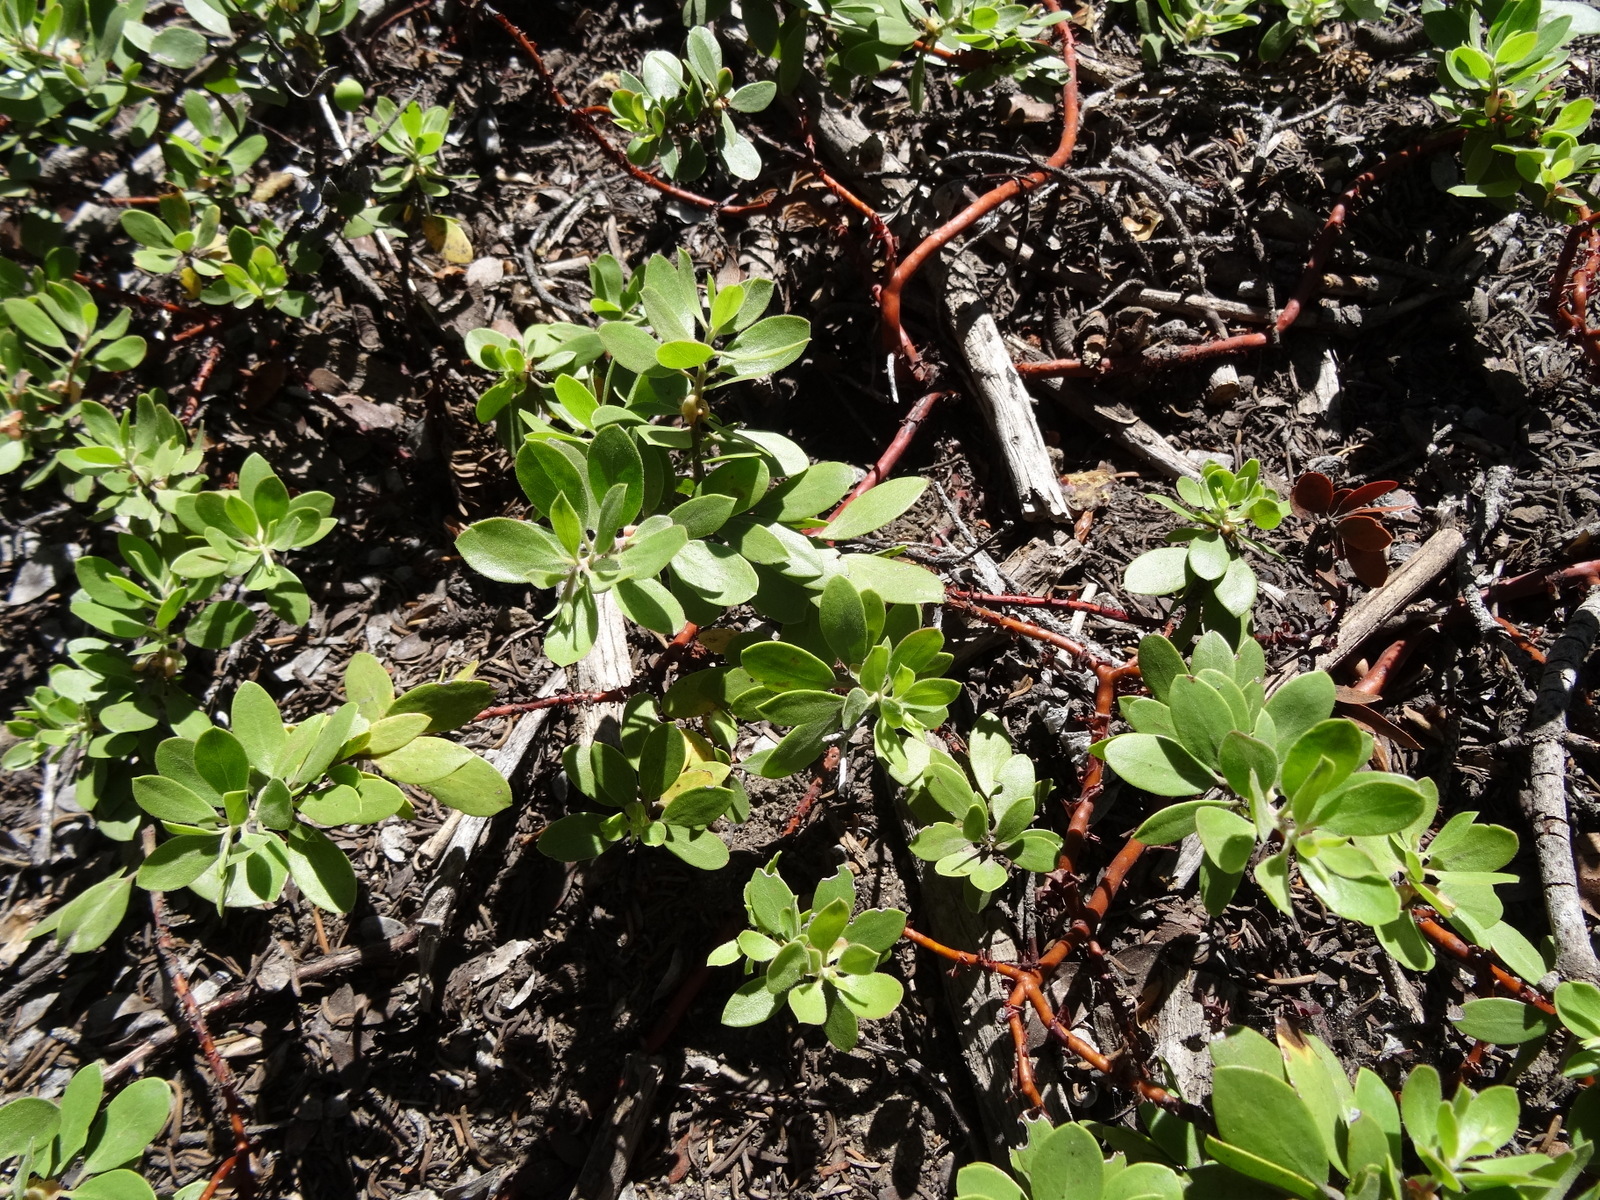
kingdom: Plantae
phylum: Tracheophyta
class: Magnoliopsida
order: Ericales
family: Ericaceae
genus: Arctostaphylos
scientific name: Arctostaphylos nevadensis
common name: Pinemat manzanita
